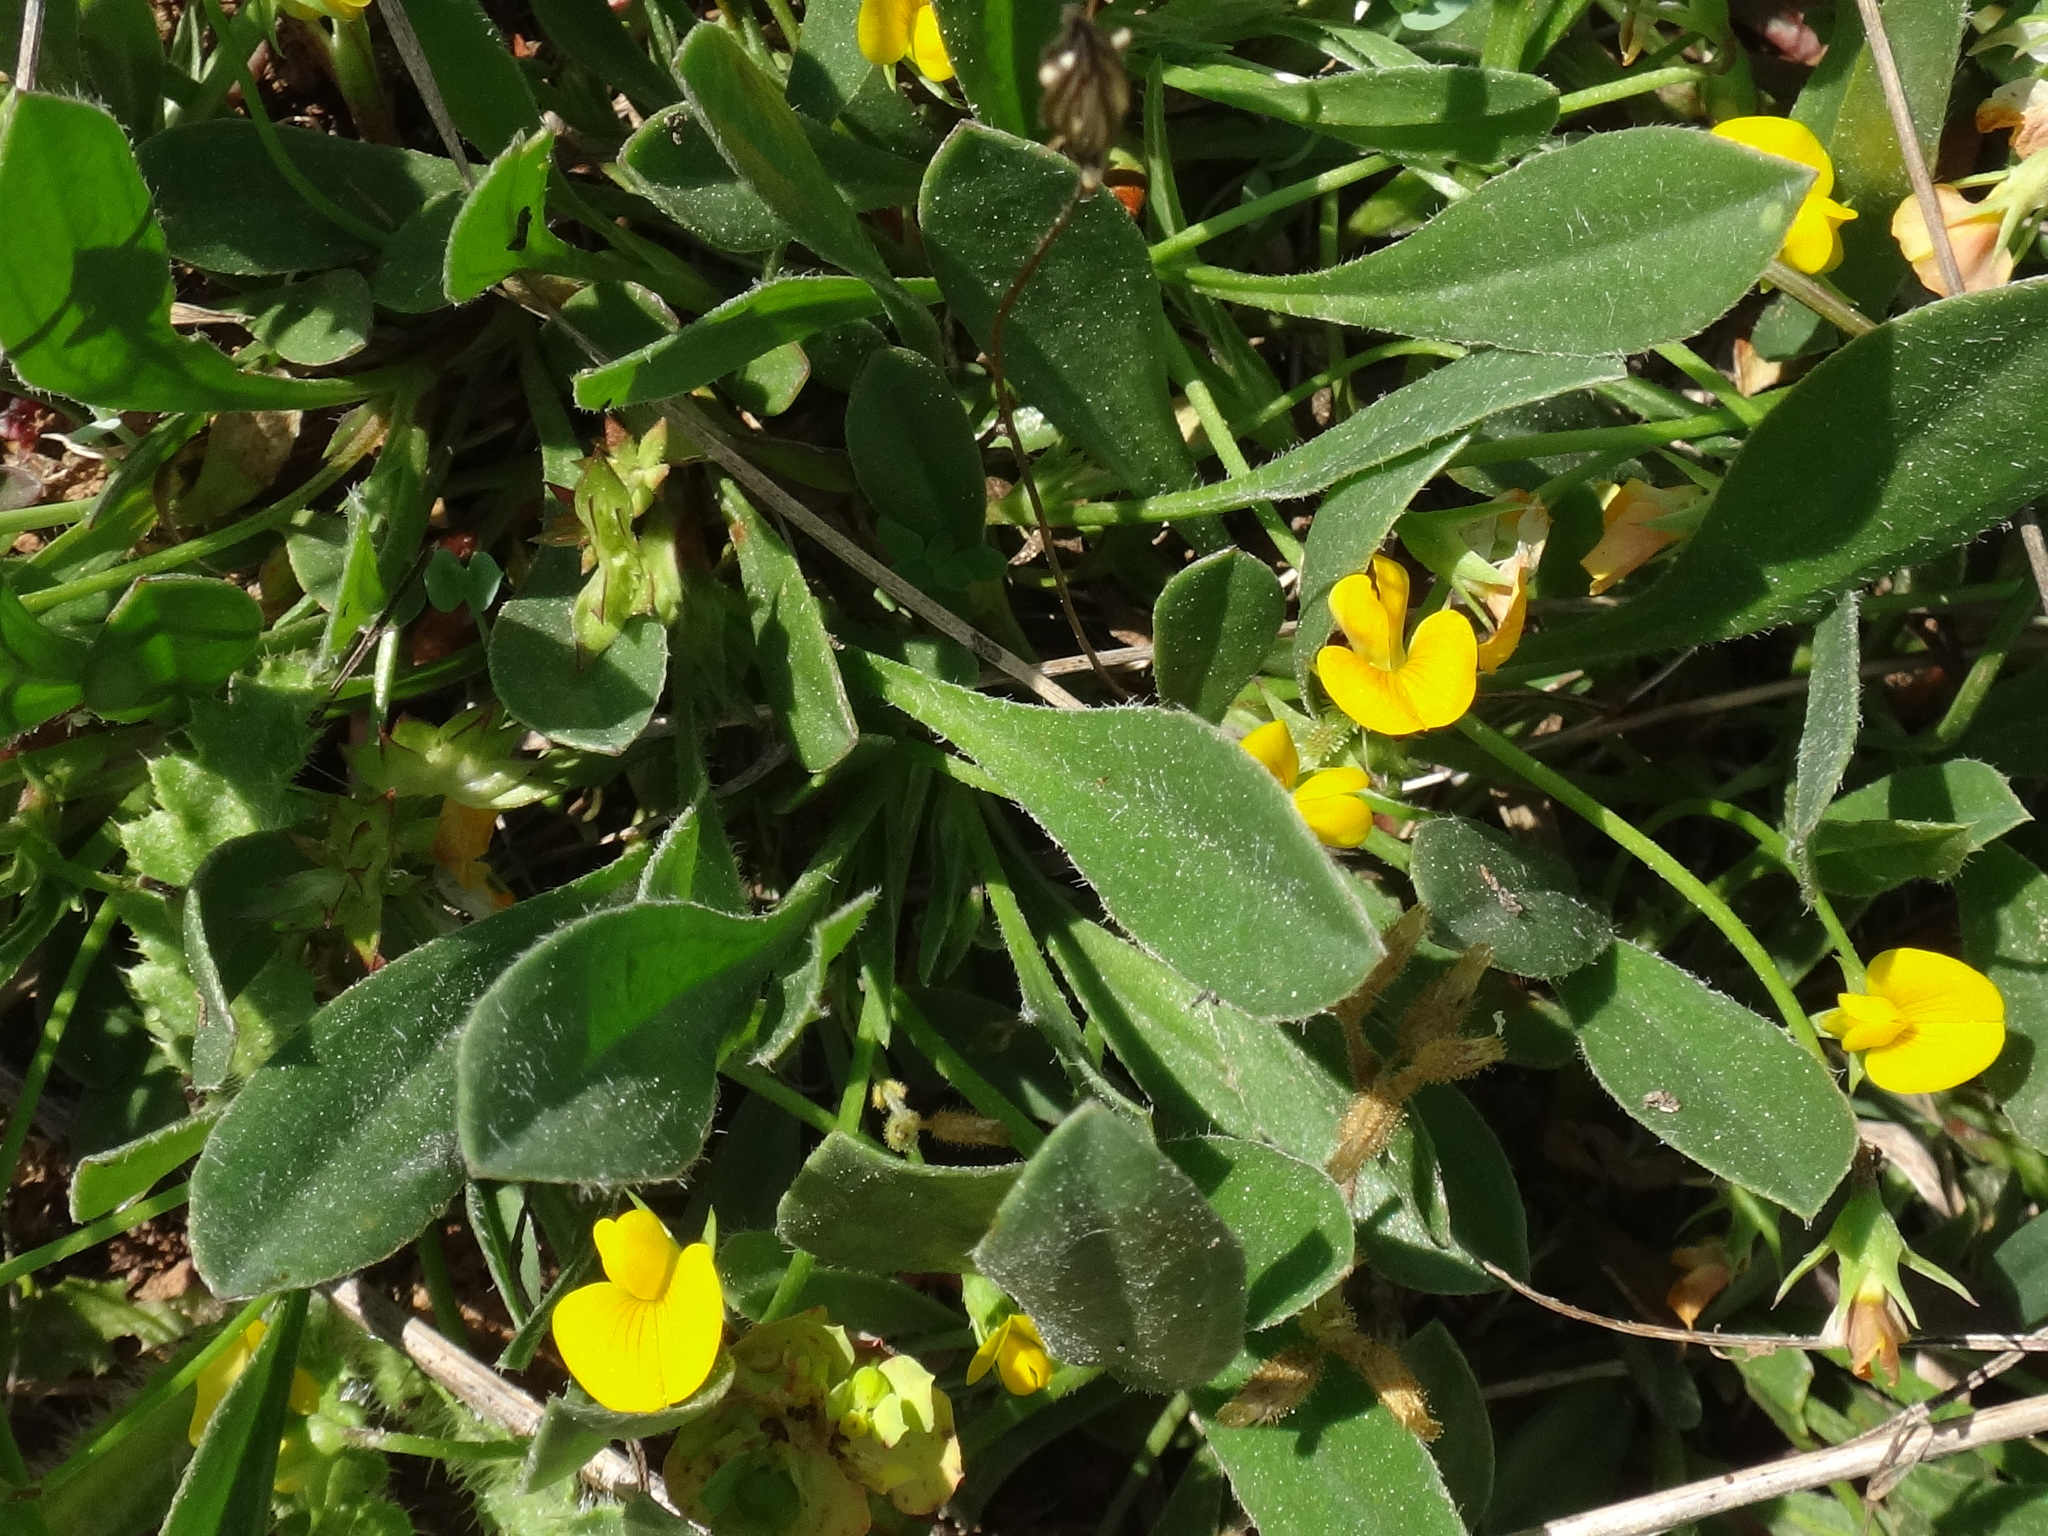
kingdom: Plantae
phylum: Tracheophyta
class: Magnoliopsida
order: Fabales
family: Fabaceae
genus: Scorpiurus
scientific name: Scorpiurus muricatus
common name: Caterpillar-plant
